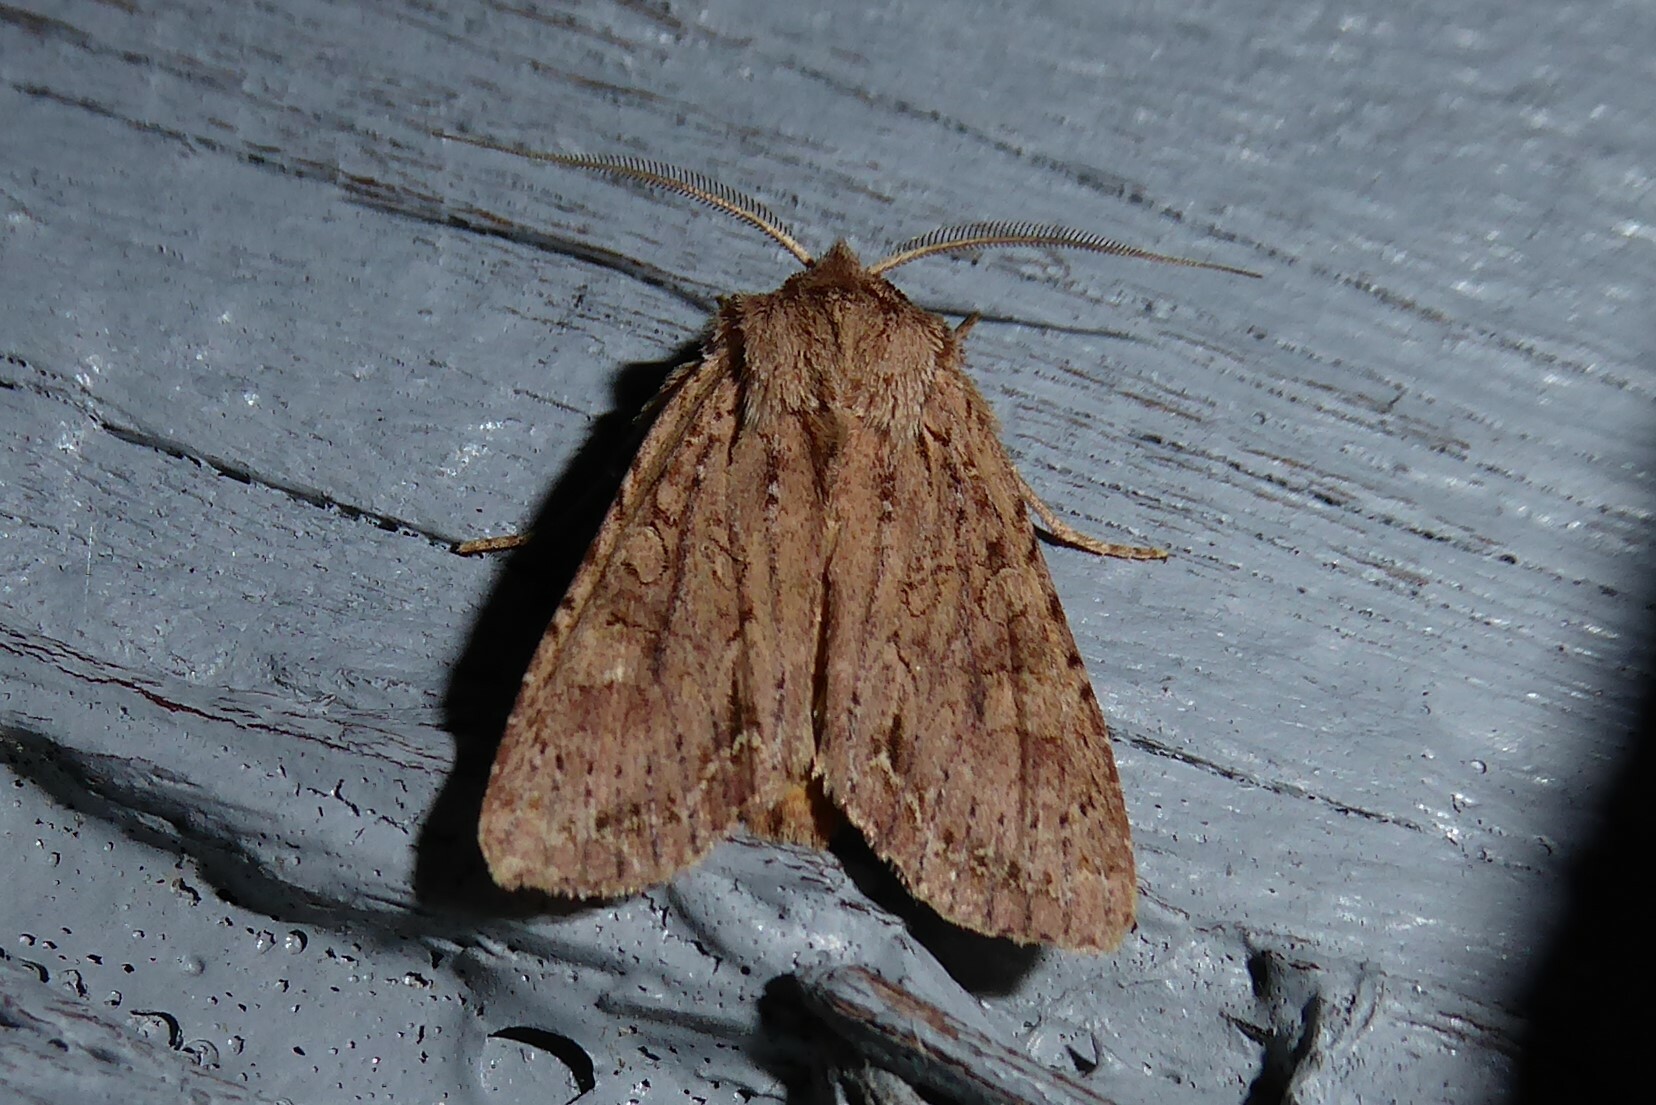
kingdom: Animalia
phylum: Arthropoda
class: Insecta
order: Lepidoptera
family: Noctuidae
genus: Ichneutica
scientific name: Ichneutica
